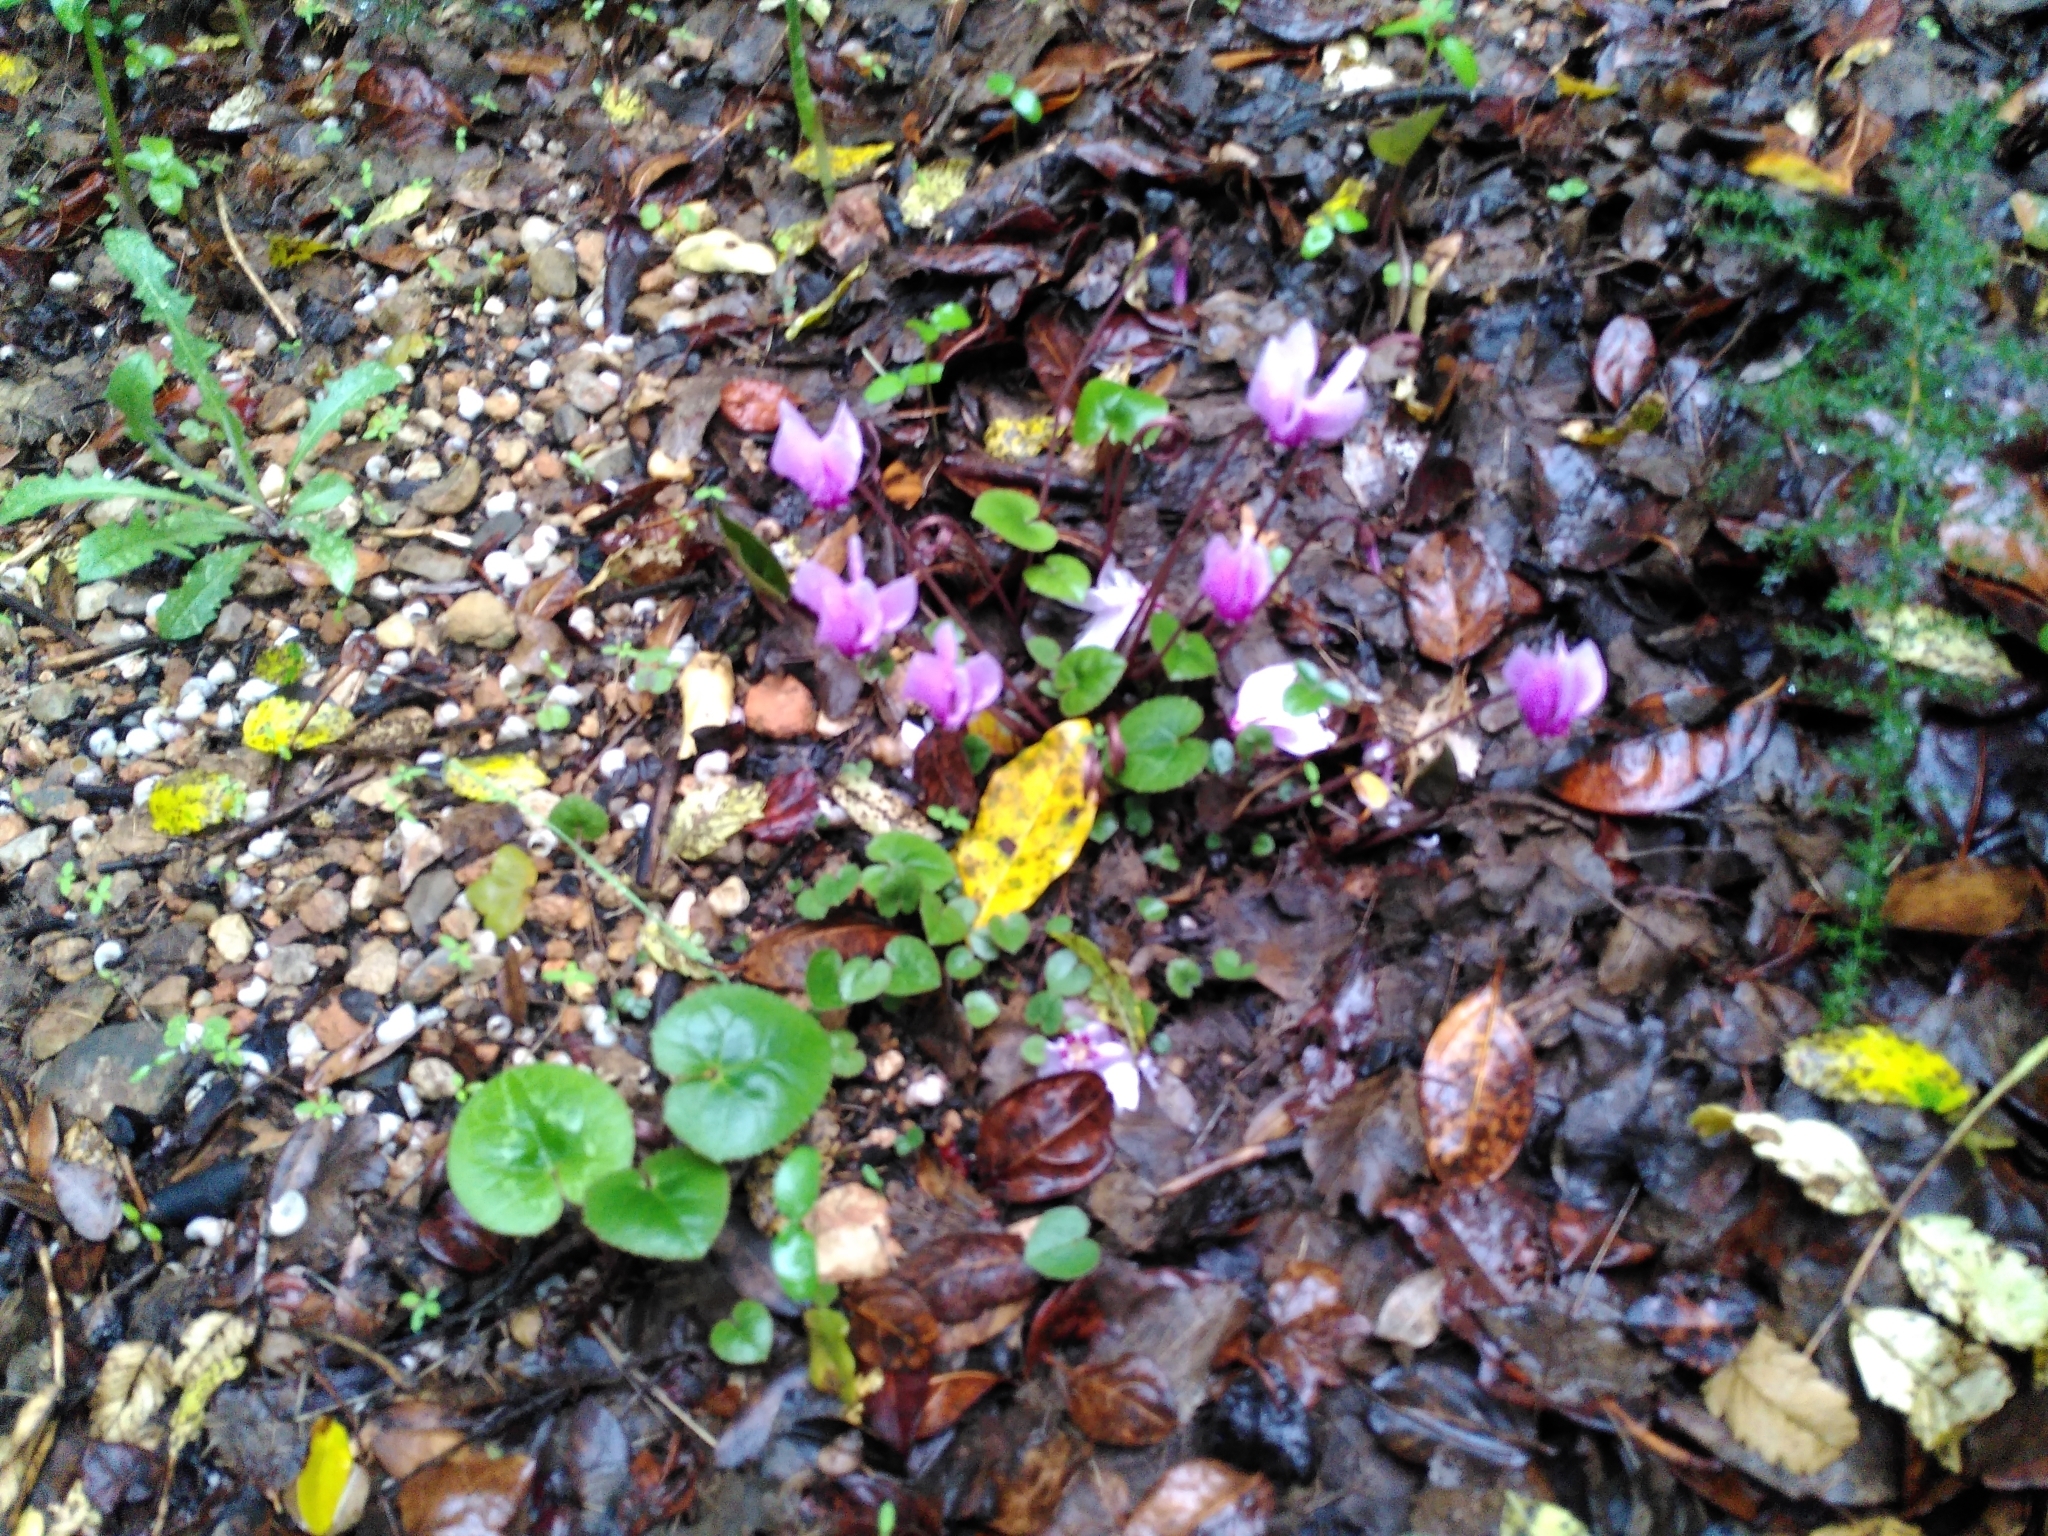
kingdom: Plantae
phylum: Tracheophyta
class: Magnoliopsida
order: Ericales
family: Primulaceae
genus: Cyclamen
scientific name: Cyclamen hederifolium
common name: Sowbread
